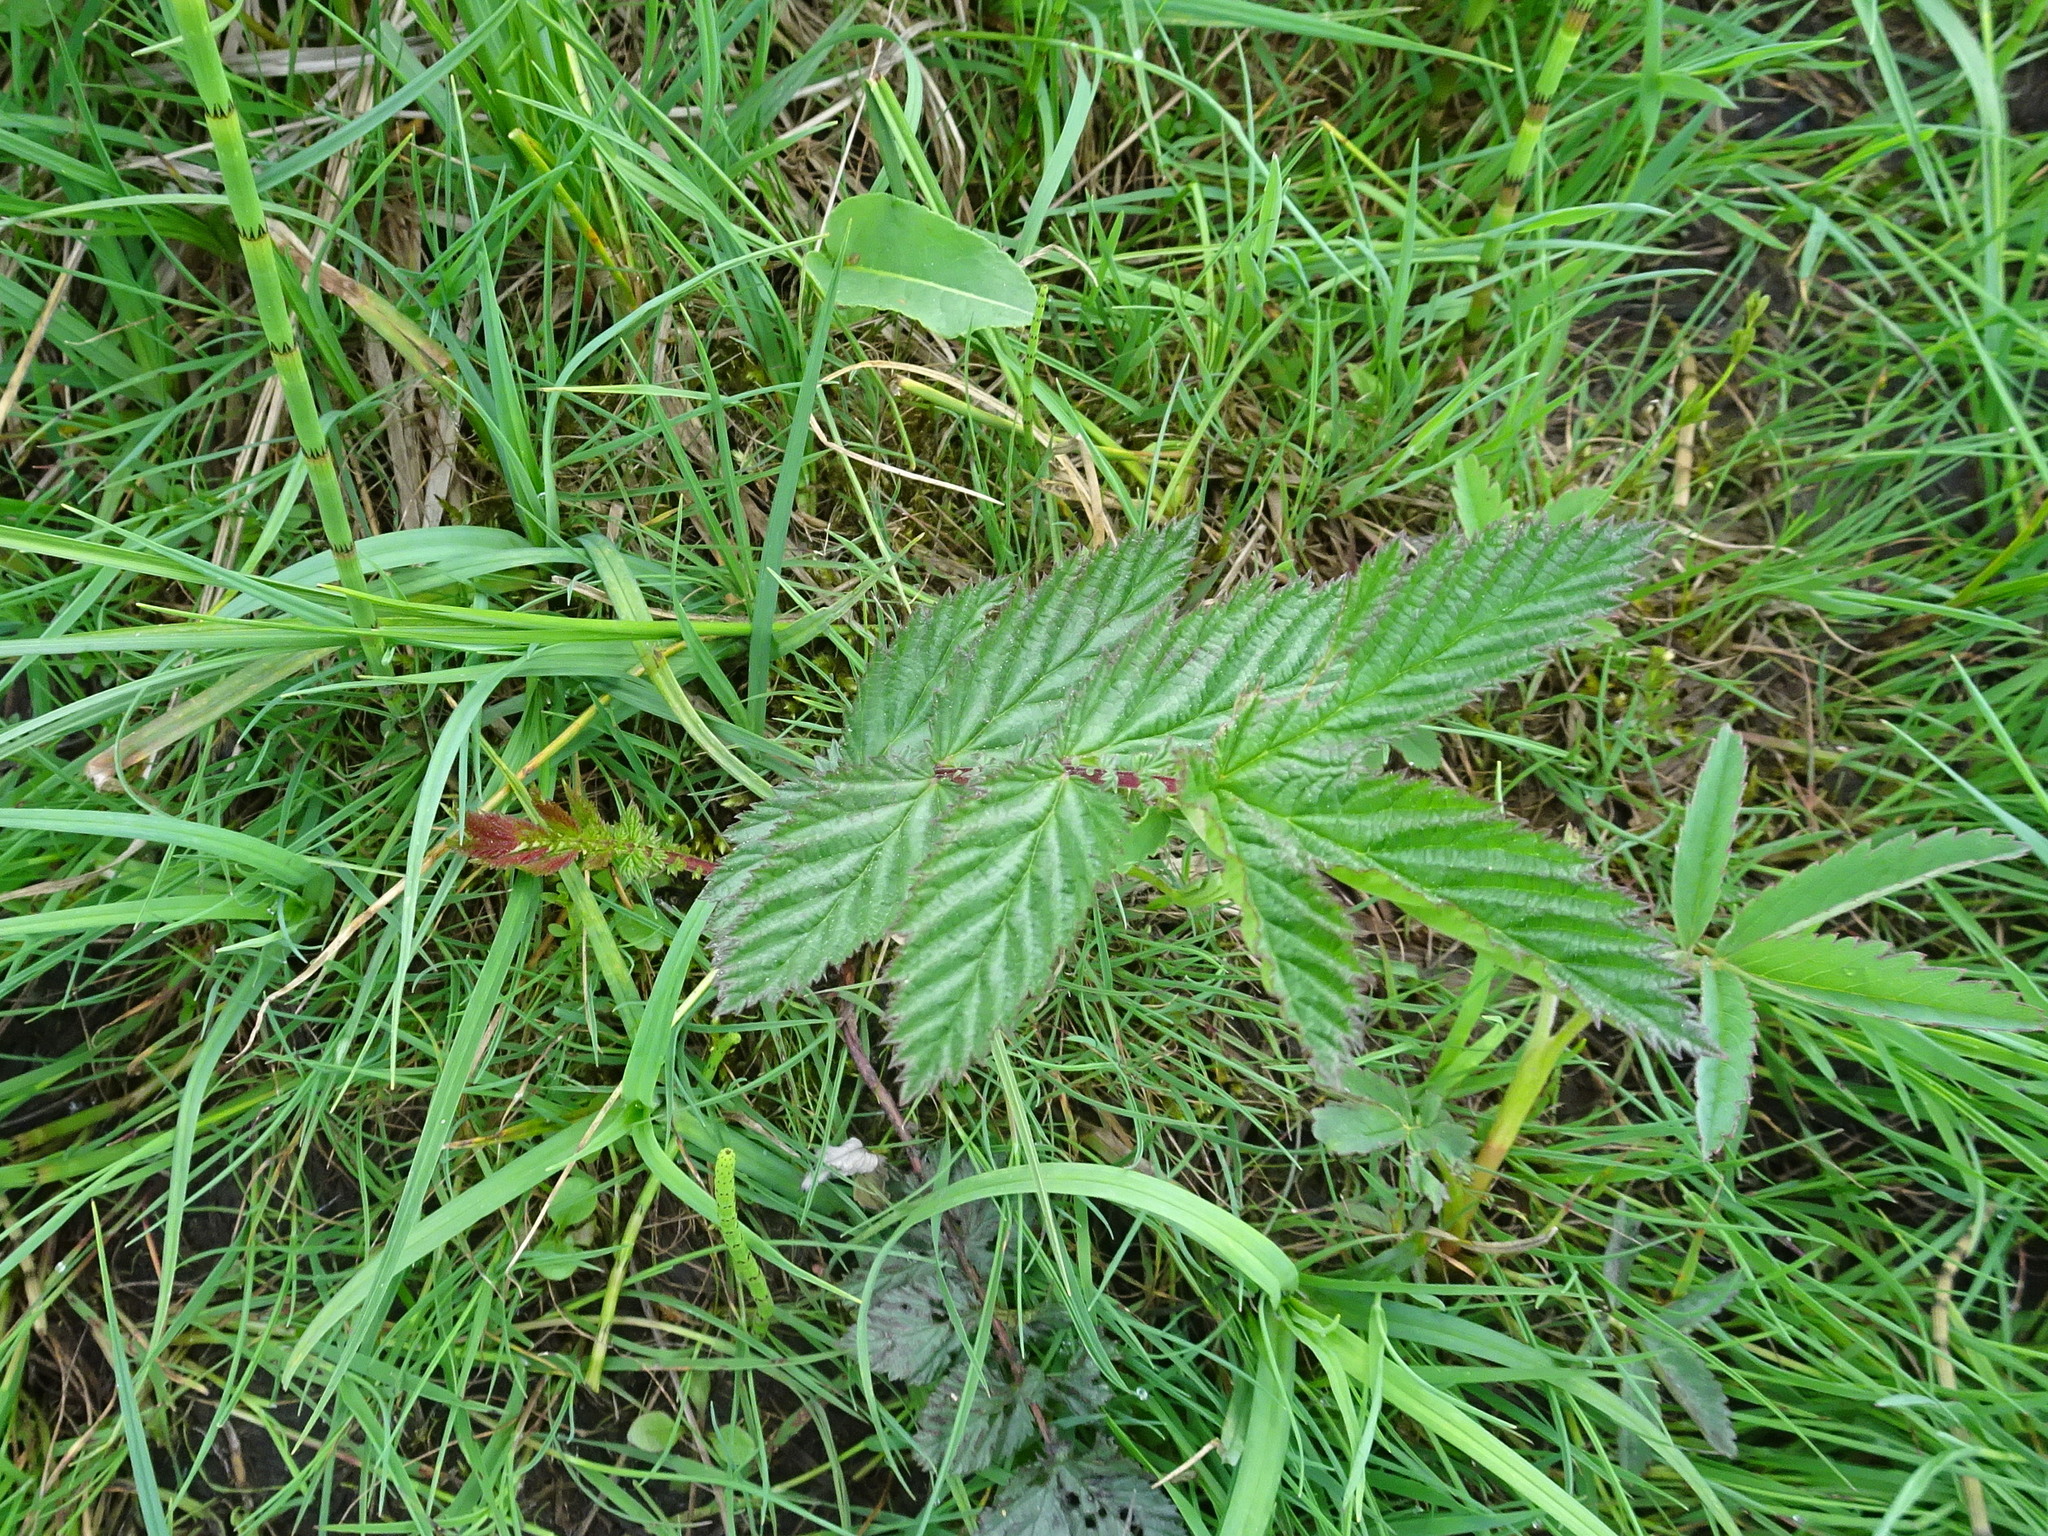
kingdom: Plantae
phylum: Tracheophyta
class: Magnoliopsida
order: Rosales
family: Rosaceae
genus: Filipendula
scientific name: Filipendula ulmaria
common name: Meadowsweet
